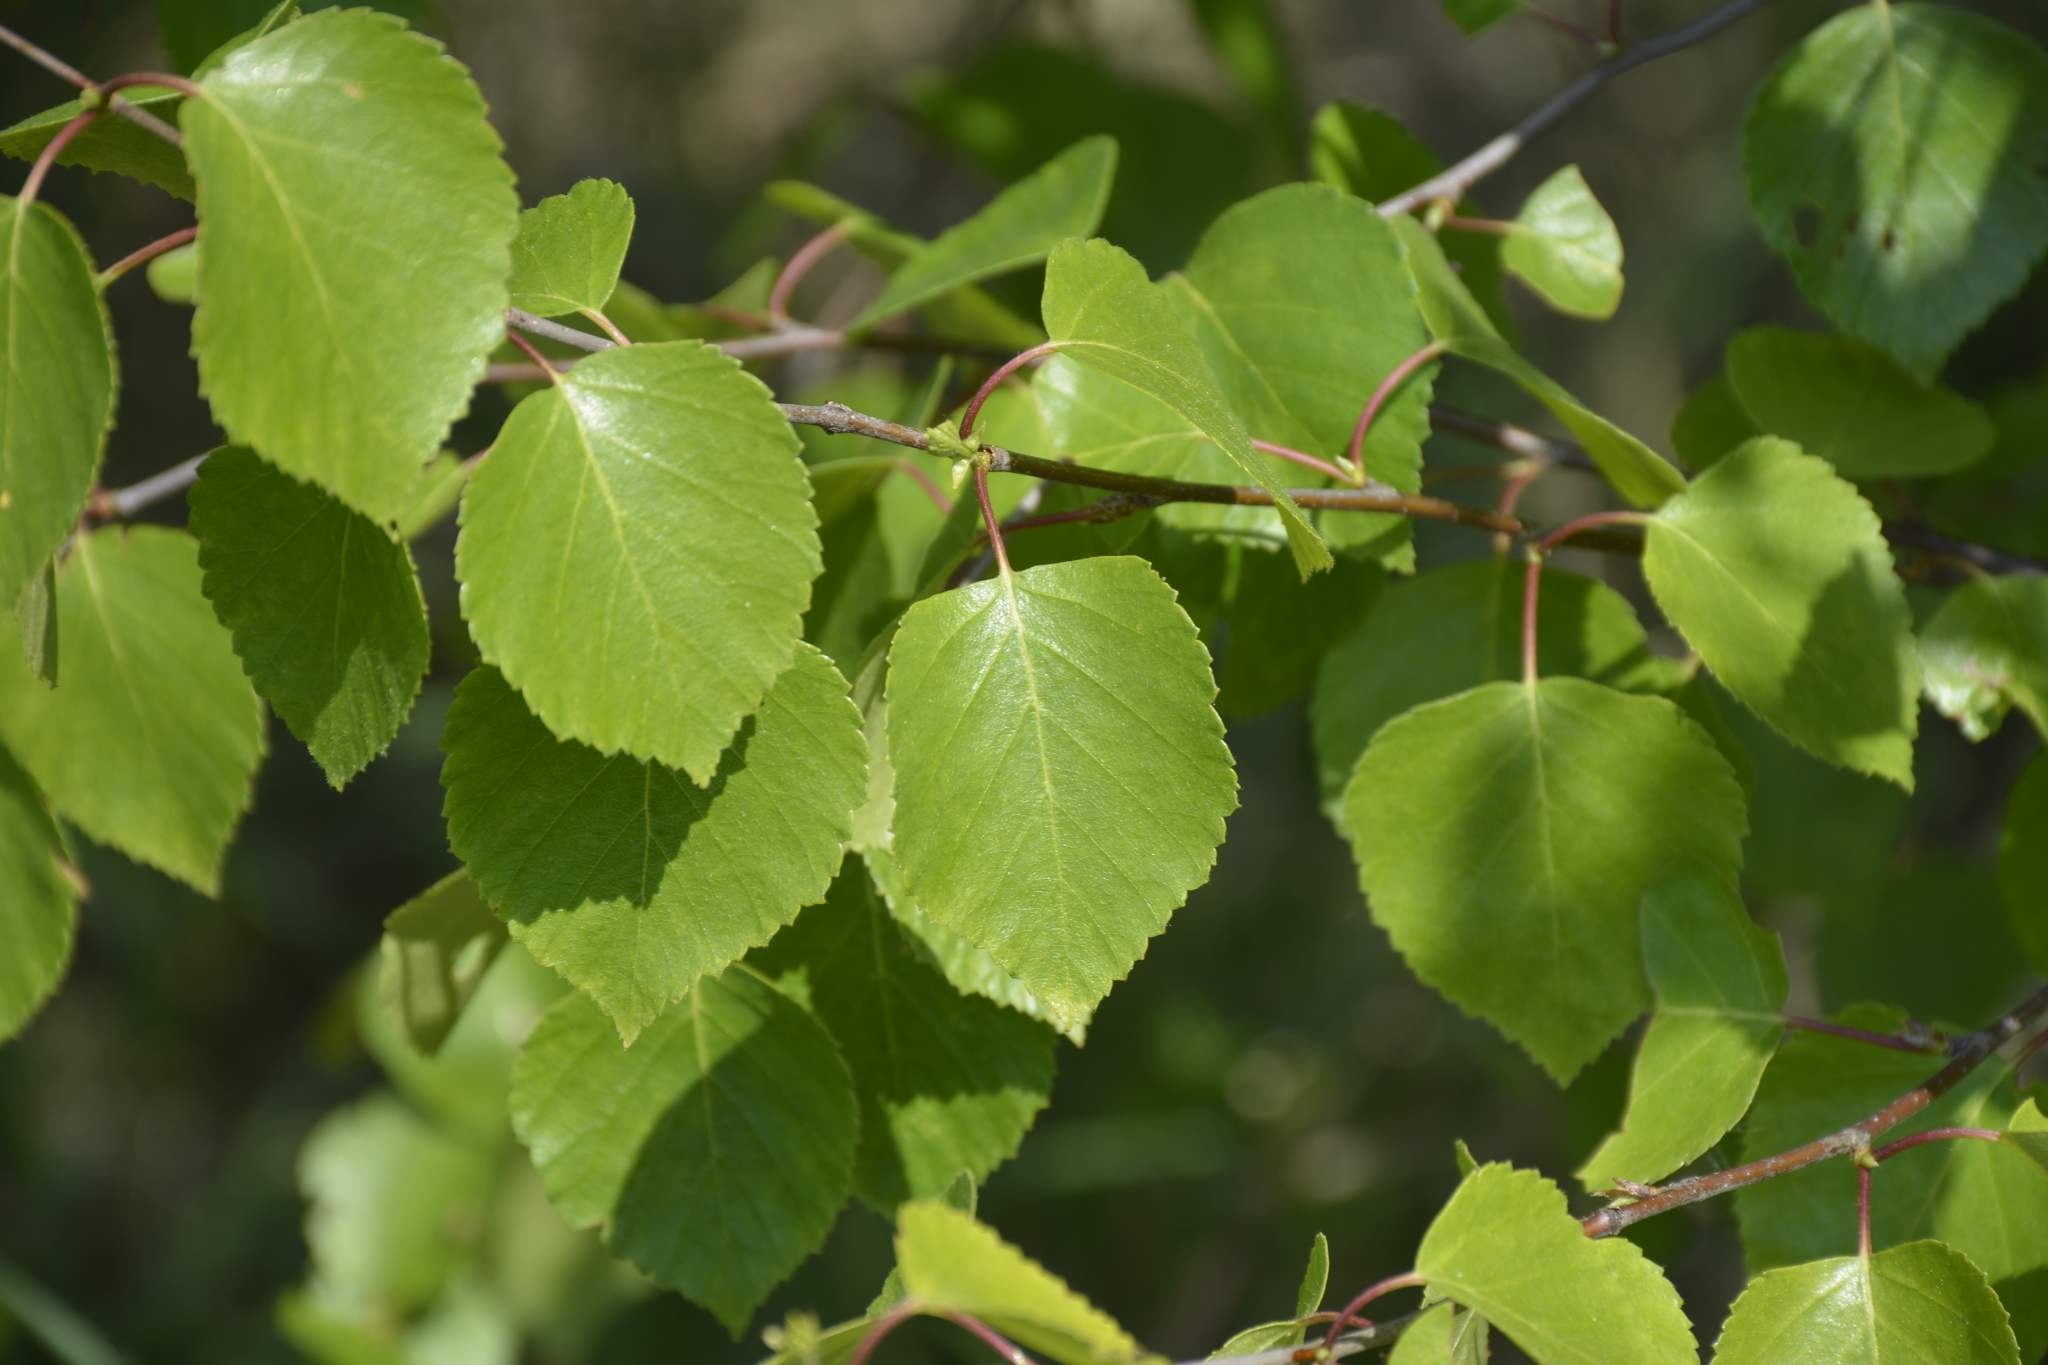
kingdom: Plantae
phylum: Tracheophyta
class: Magnoliopsida
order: Fagales
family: Betulaceae
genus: Betula
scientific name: Betula pubescens
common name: Downy birch
